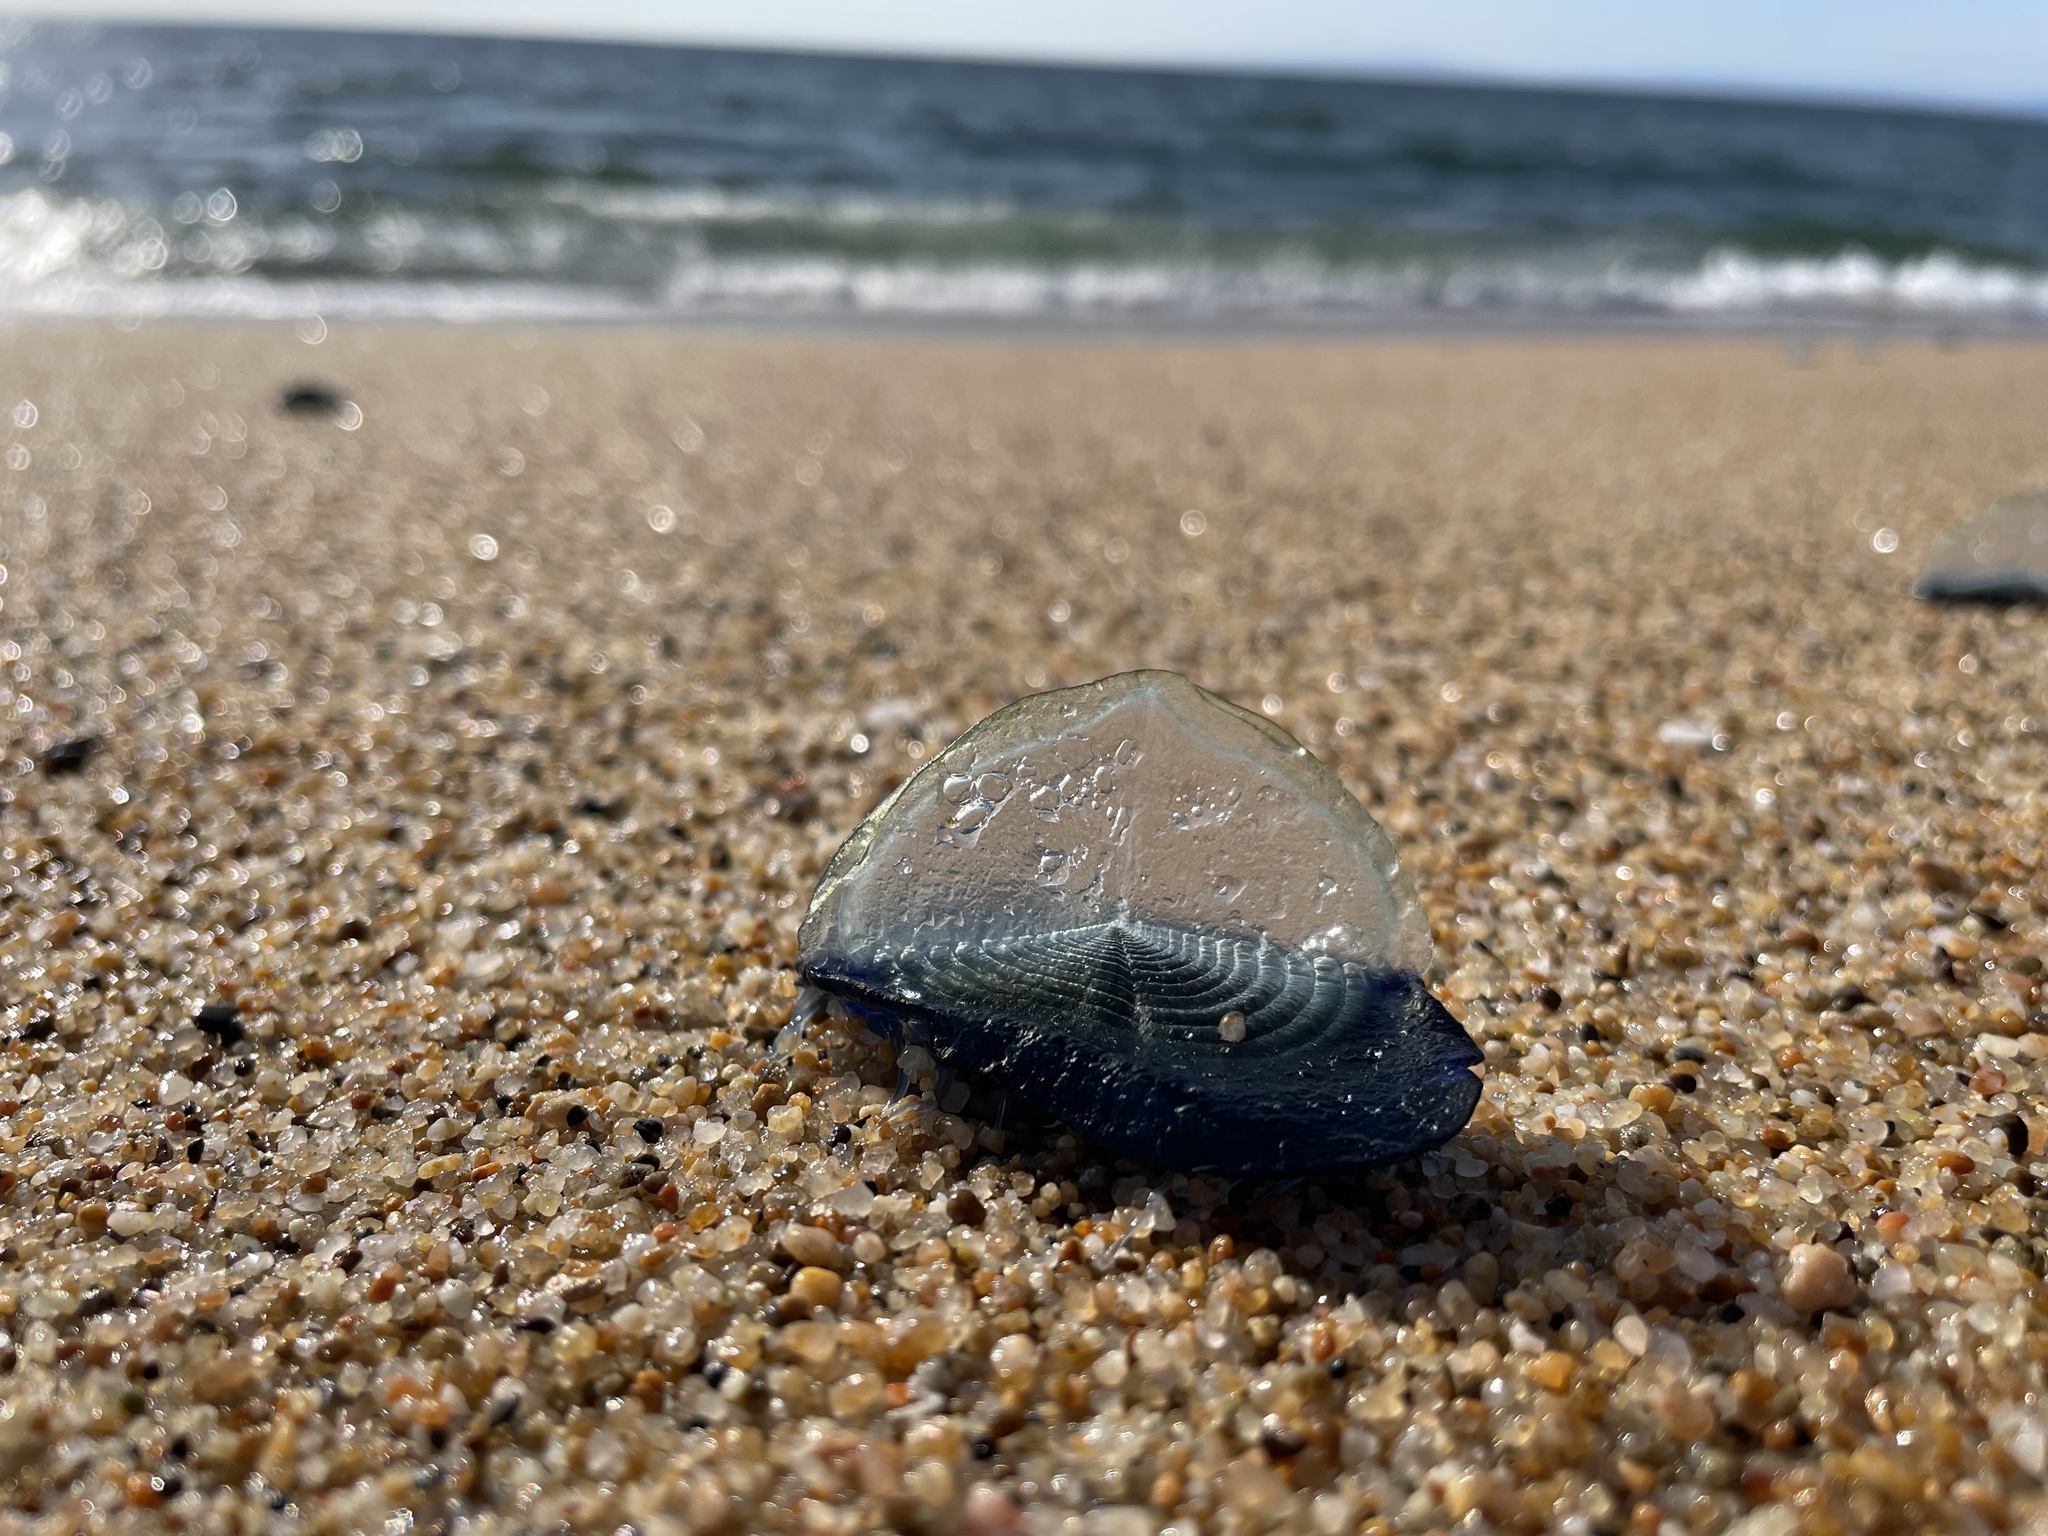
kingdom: Animalia
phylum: Cnidaria
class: Hydrozoa
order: Anthoathecata
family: Porpitidae
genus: Velella
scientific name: Velella velella
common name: By-the-wind-sailor
